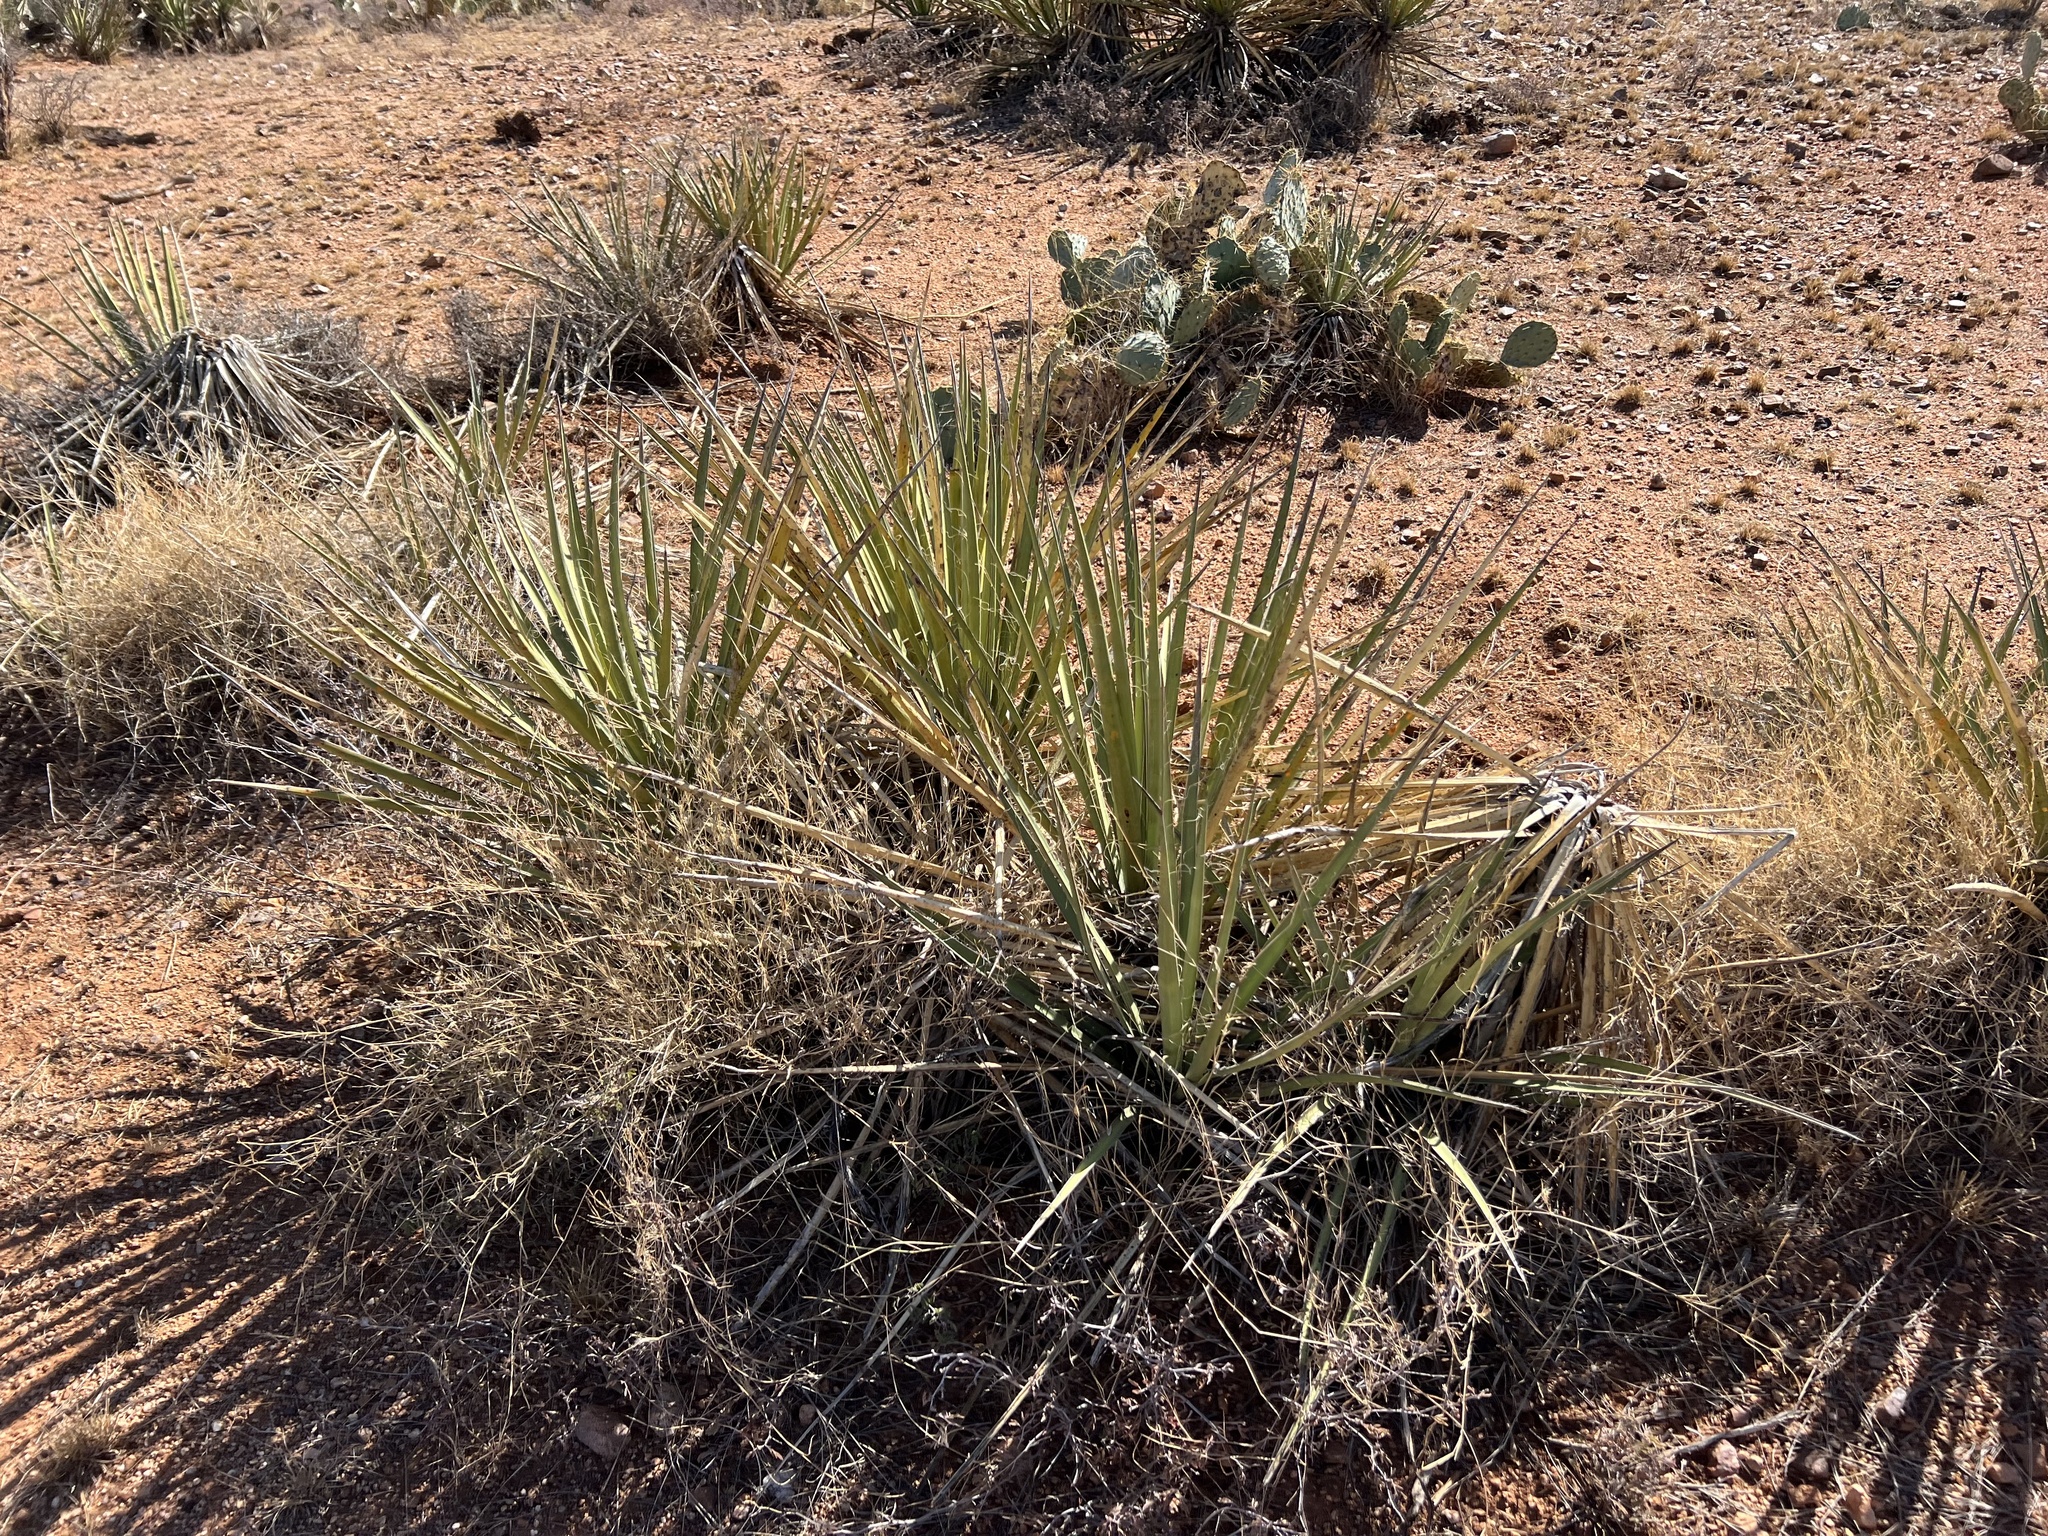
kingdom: Plantae
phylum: Tracheophyta
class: Liliopsida
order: Asparagales
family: Asparagaceae
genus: Yucca
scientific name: Yucca baccata
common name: Banana yucca
